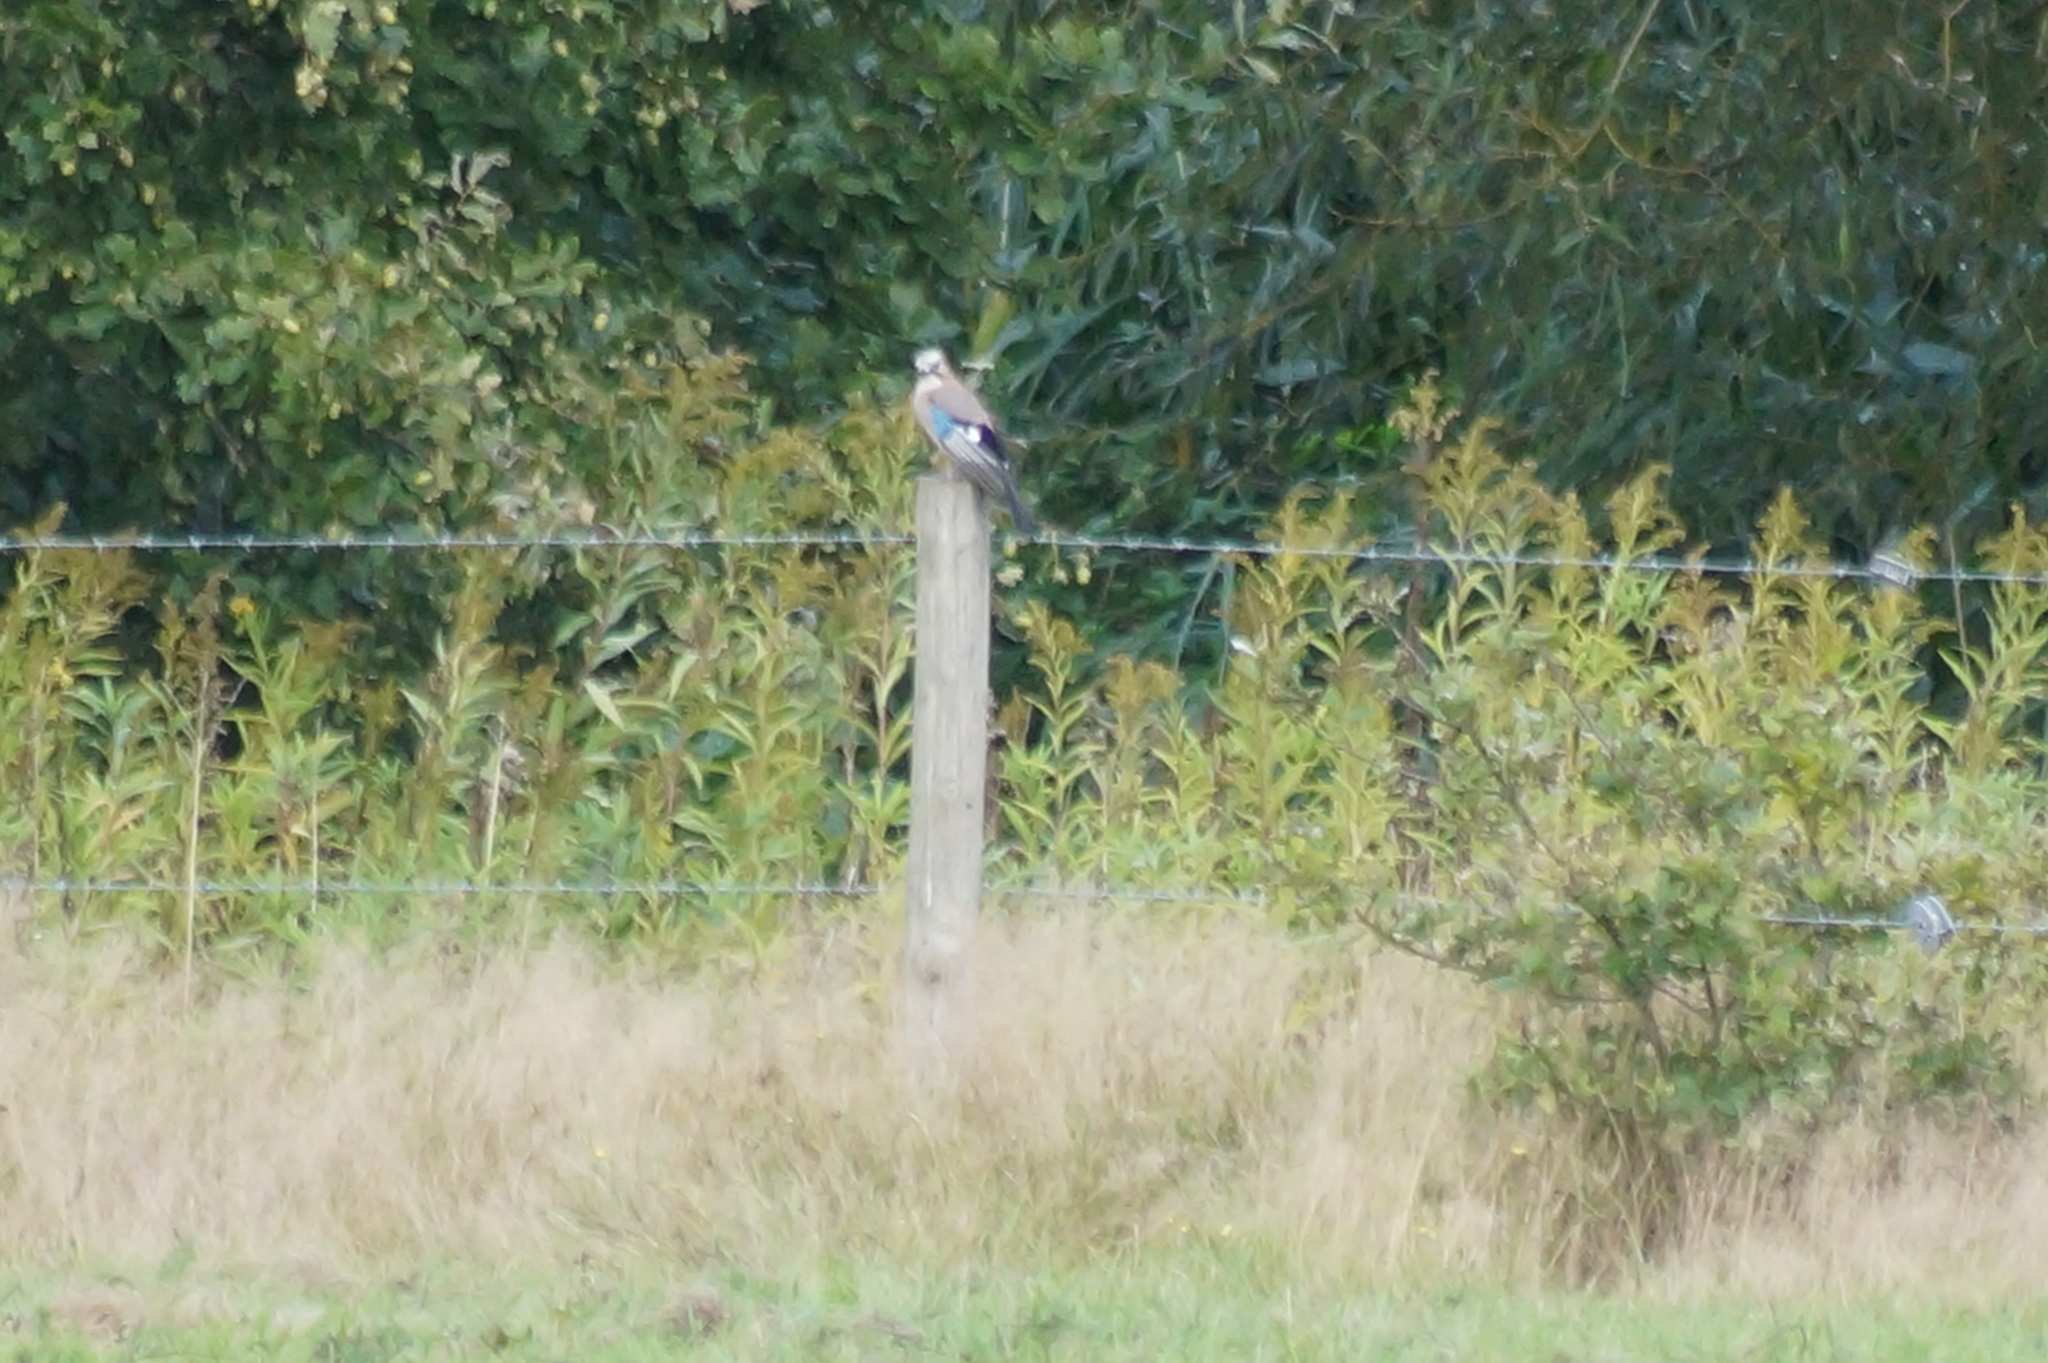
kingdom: Animalia
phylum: Chordata
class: Aves
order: Passeriformes
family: Corvidae
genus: Garrulus
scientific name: Garrulus glandarius
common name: Eurasian jay
